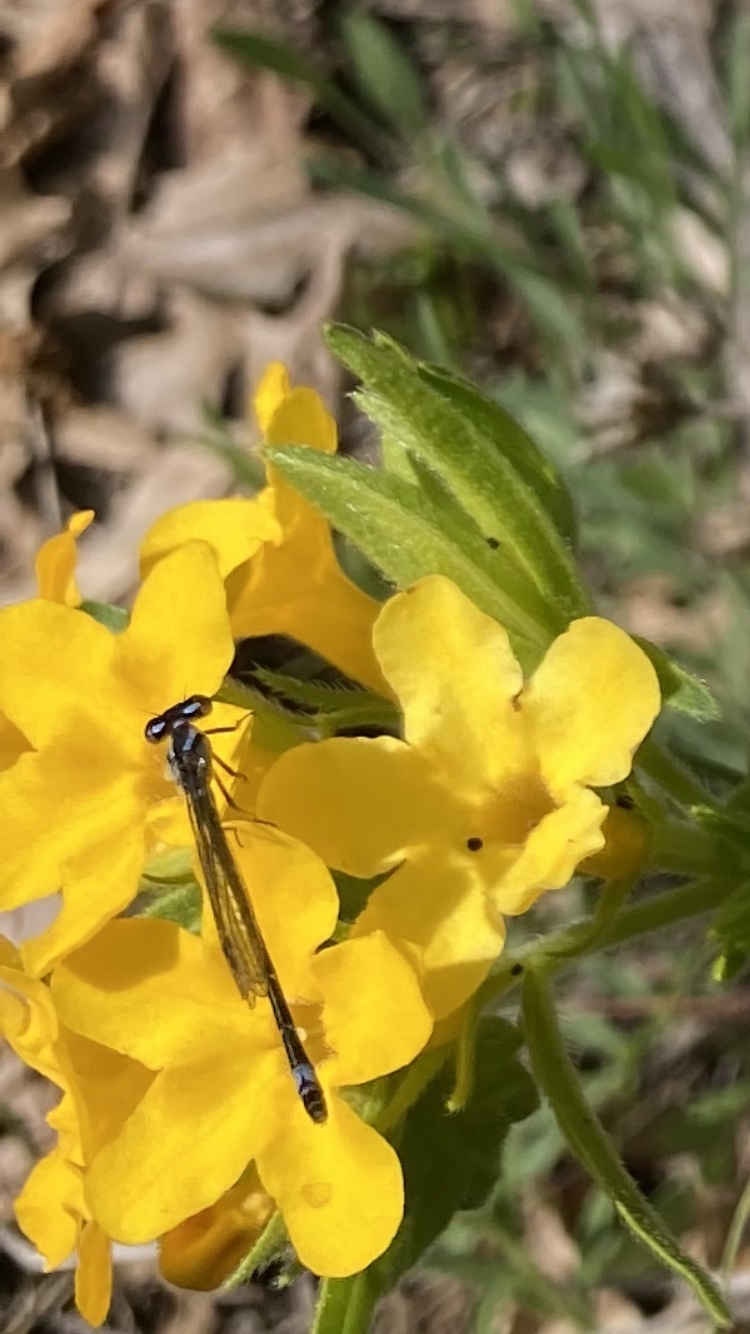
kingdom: Animalia
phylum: Arthropoda
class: Insecta
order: Odonata
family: Coenagrionidae
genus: Enallagma
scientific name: Enallagma geminatum
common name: Skimming bluet
